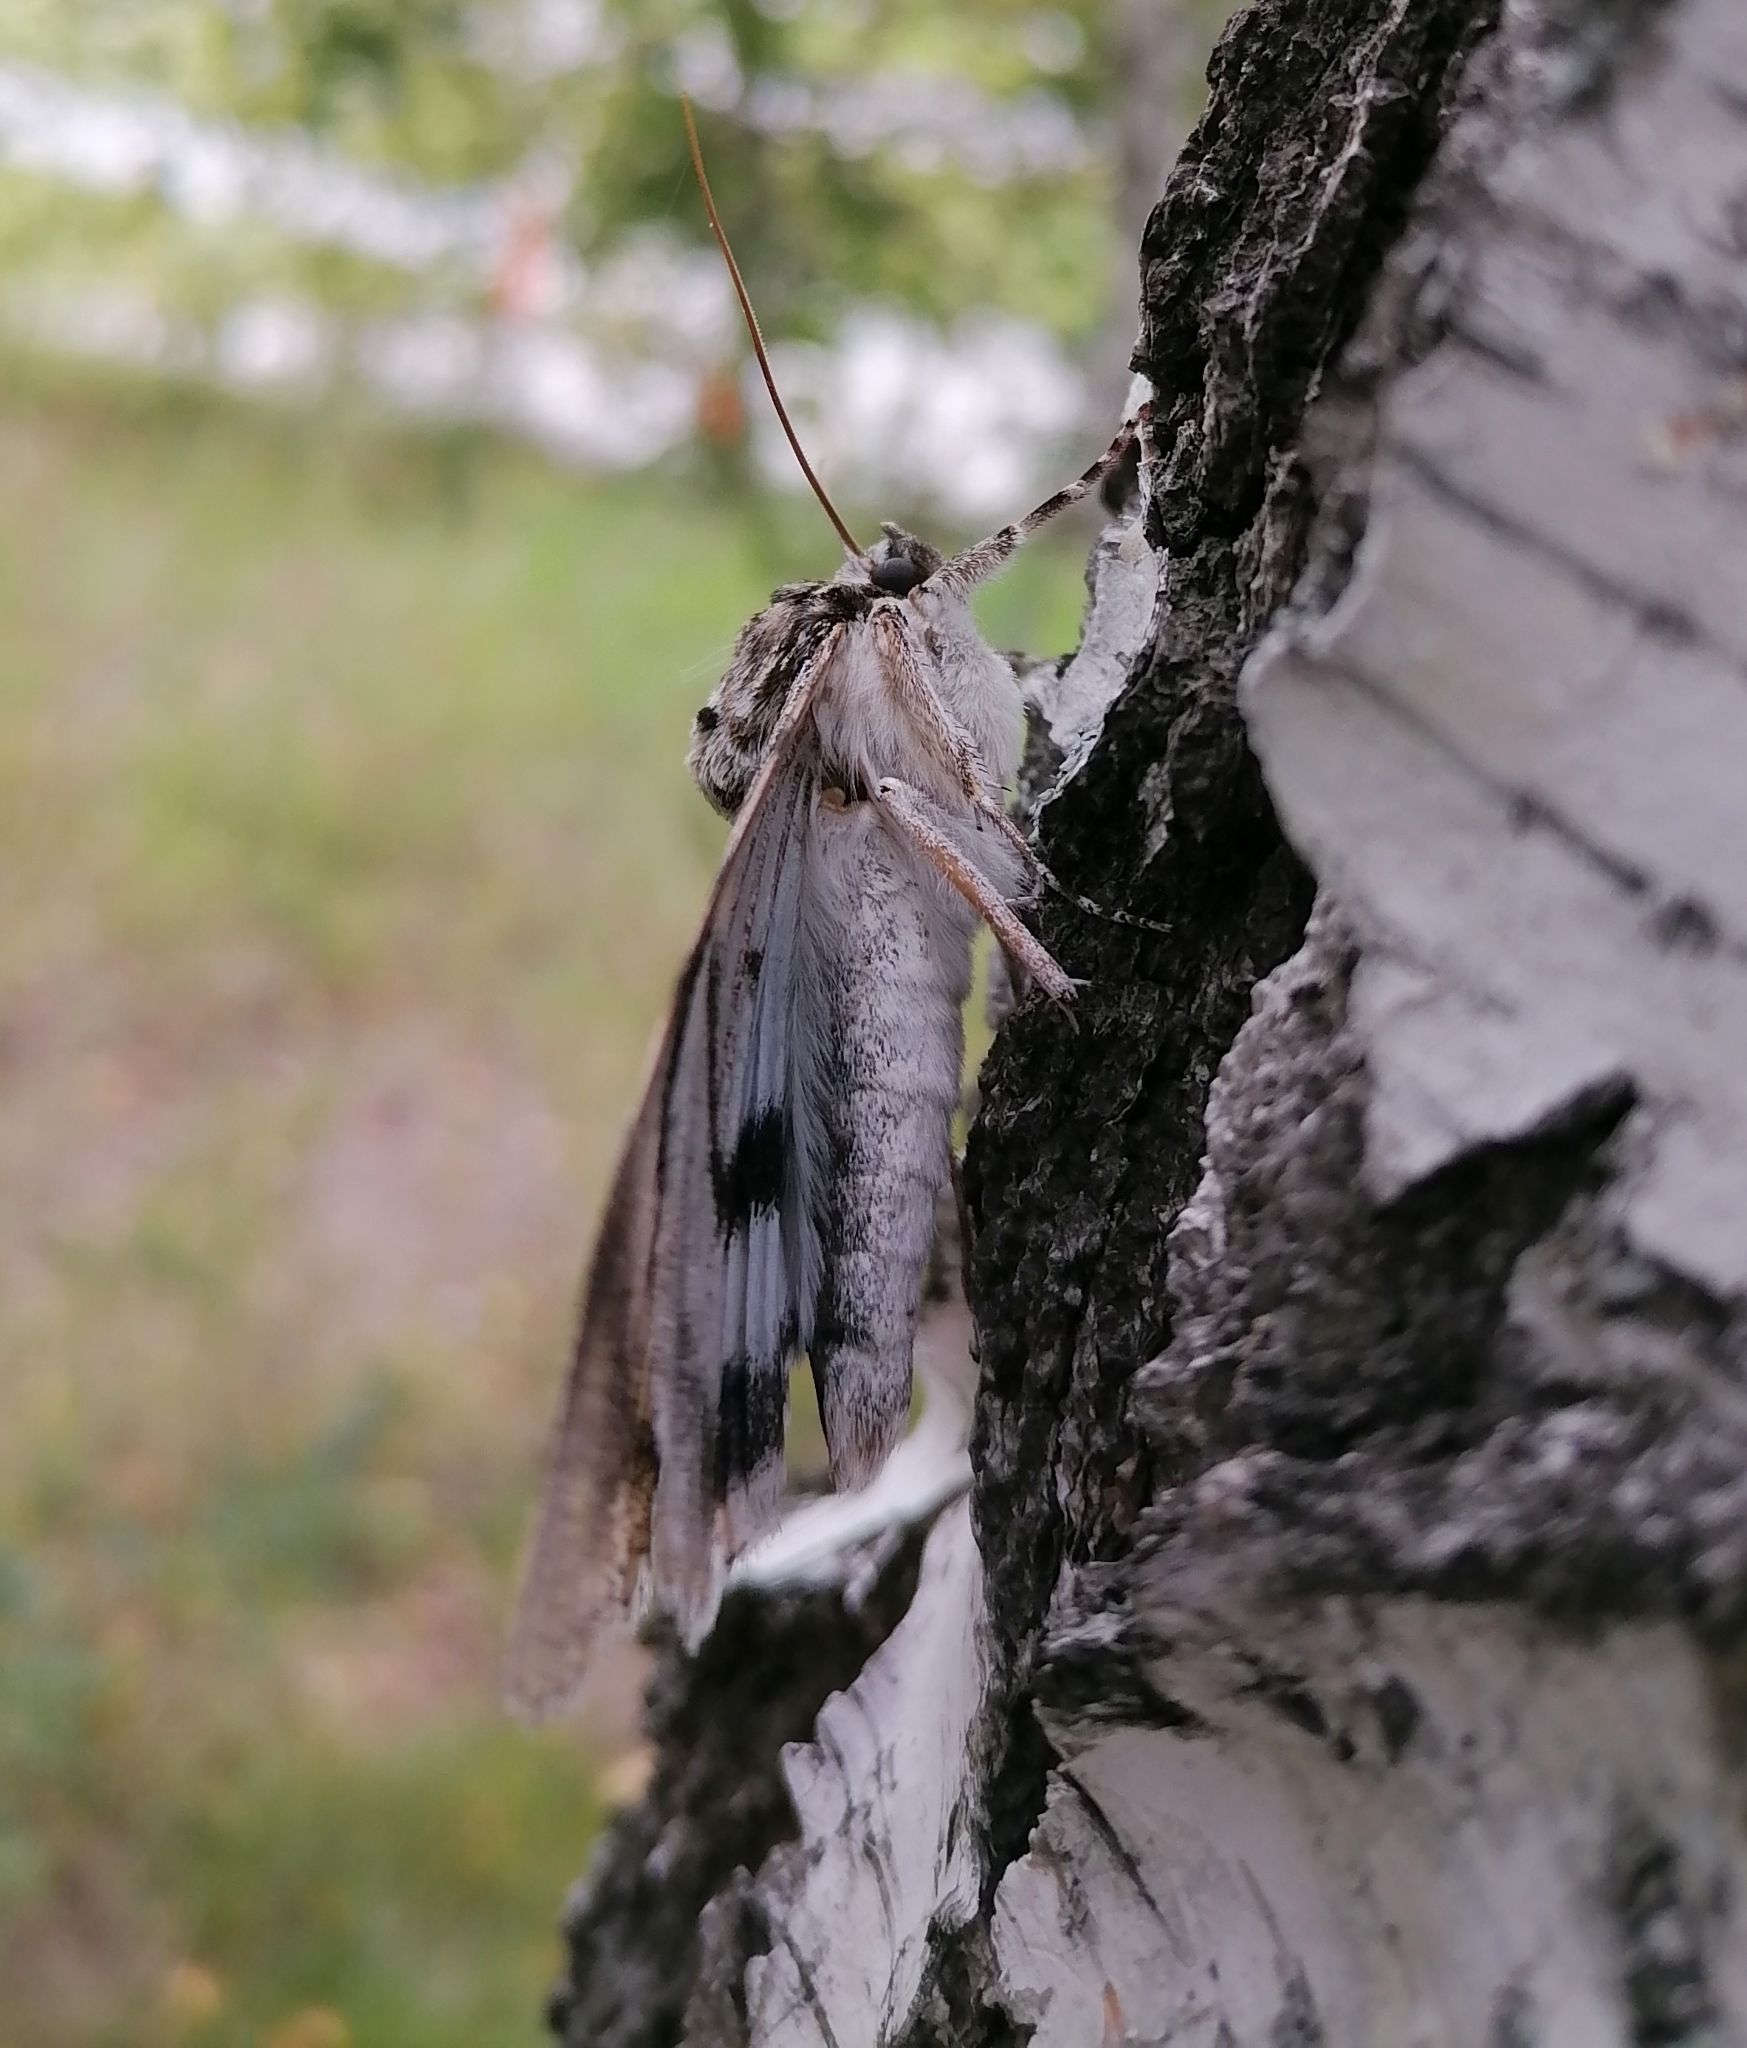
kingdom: Animalia
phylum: Arthropoda
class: Insecta
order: Lepidoptera
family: Erebidae
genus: Catocala
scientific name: Catocala fraxini
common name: Clifden nonpareil
